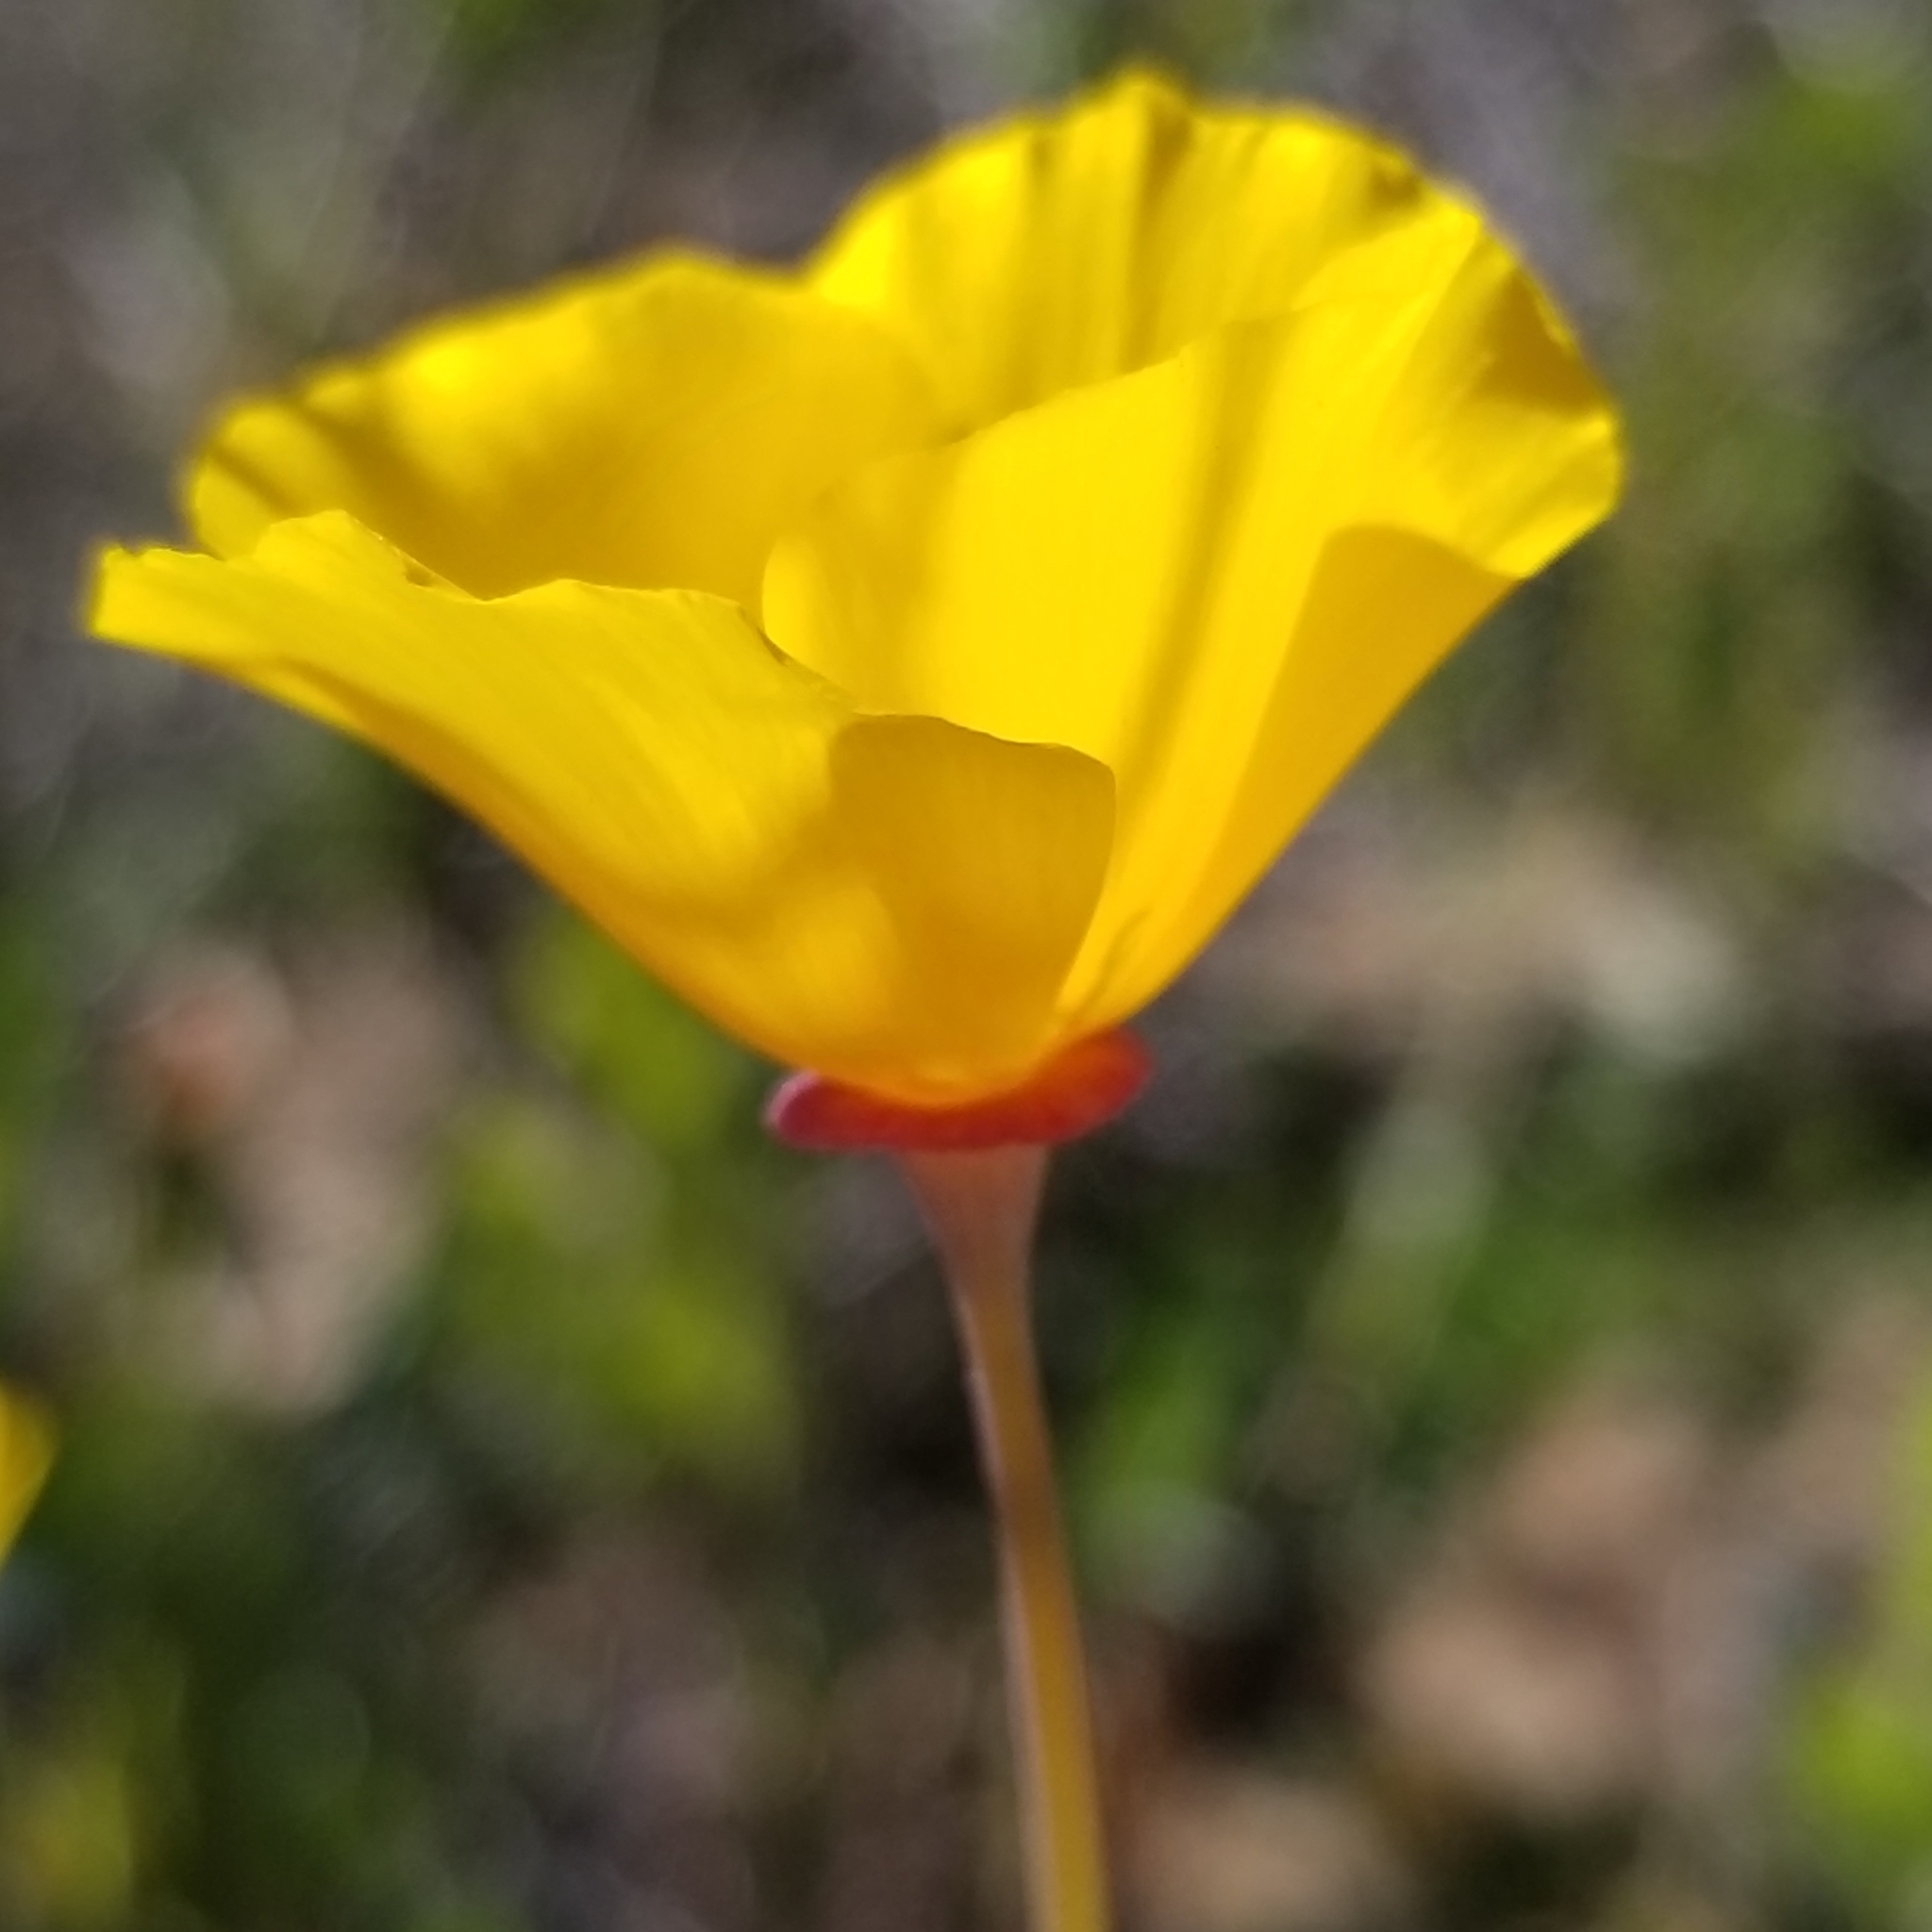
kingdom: Plantae
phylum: Tracheophyta
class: Magnoliopsida
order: Ranunculales
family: Papaveraceae
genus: Eschscholzia
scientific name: Eschscholzia californica
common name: California poppy
